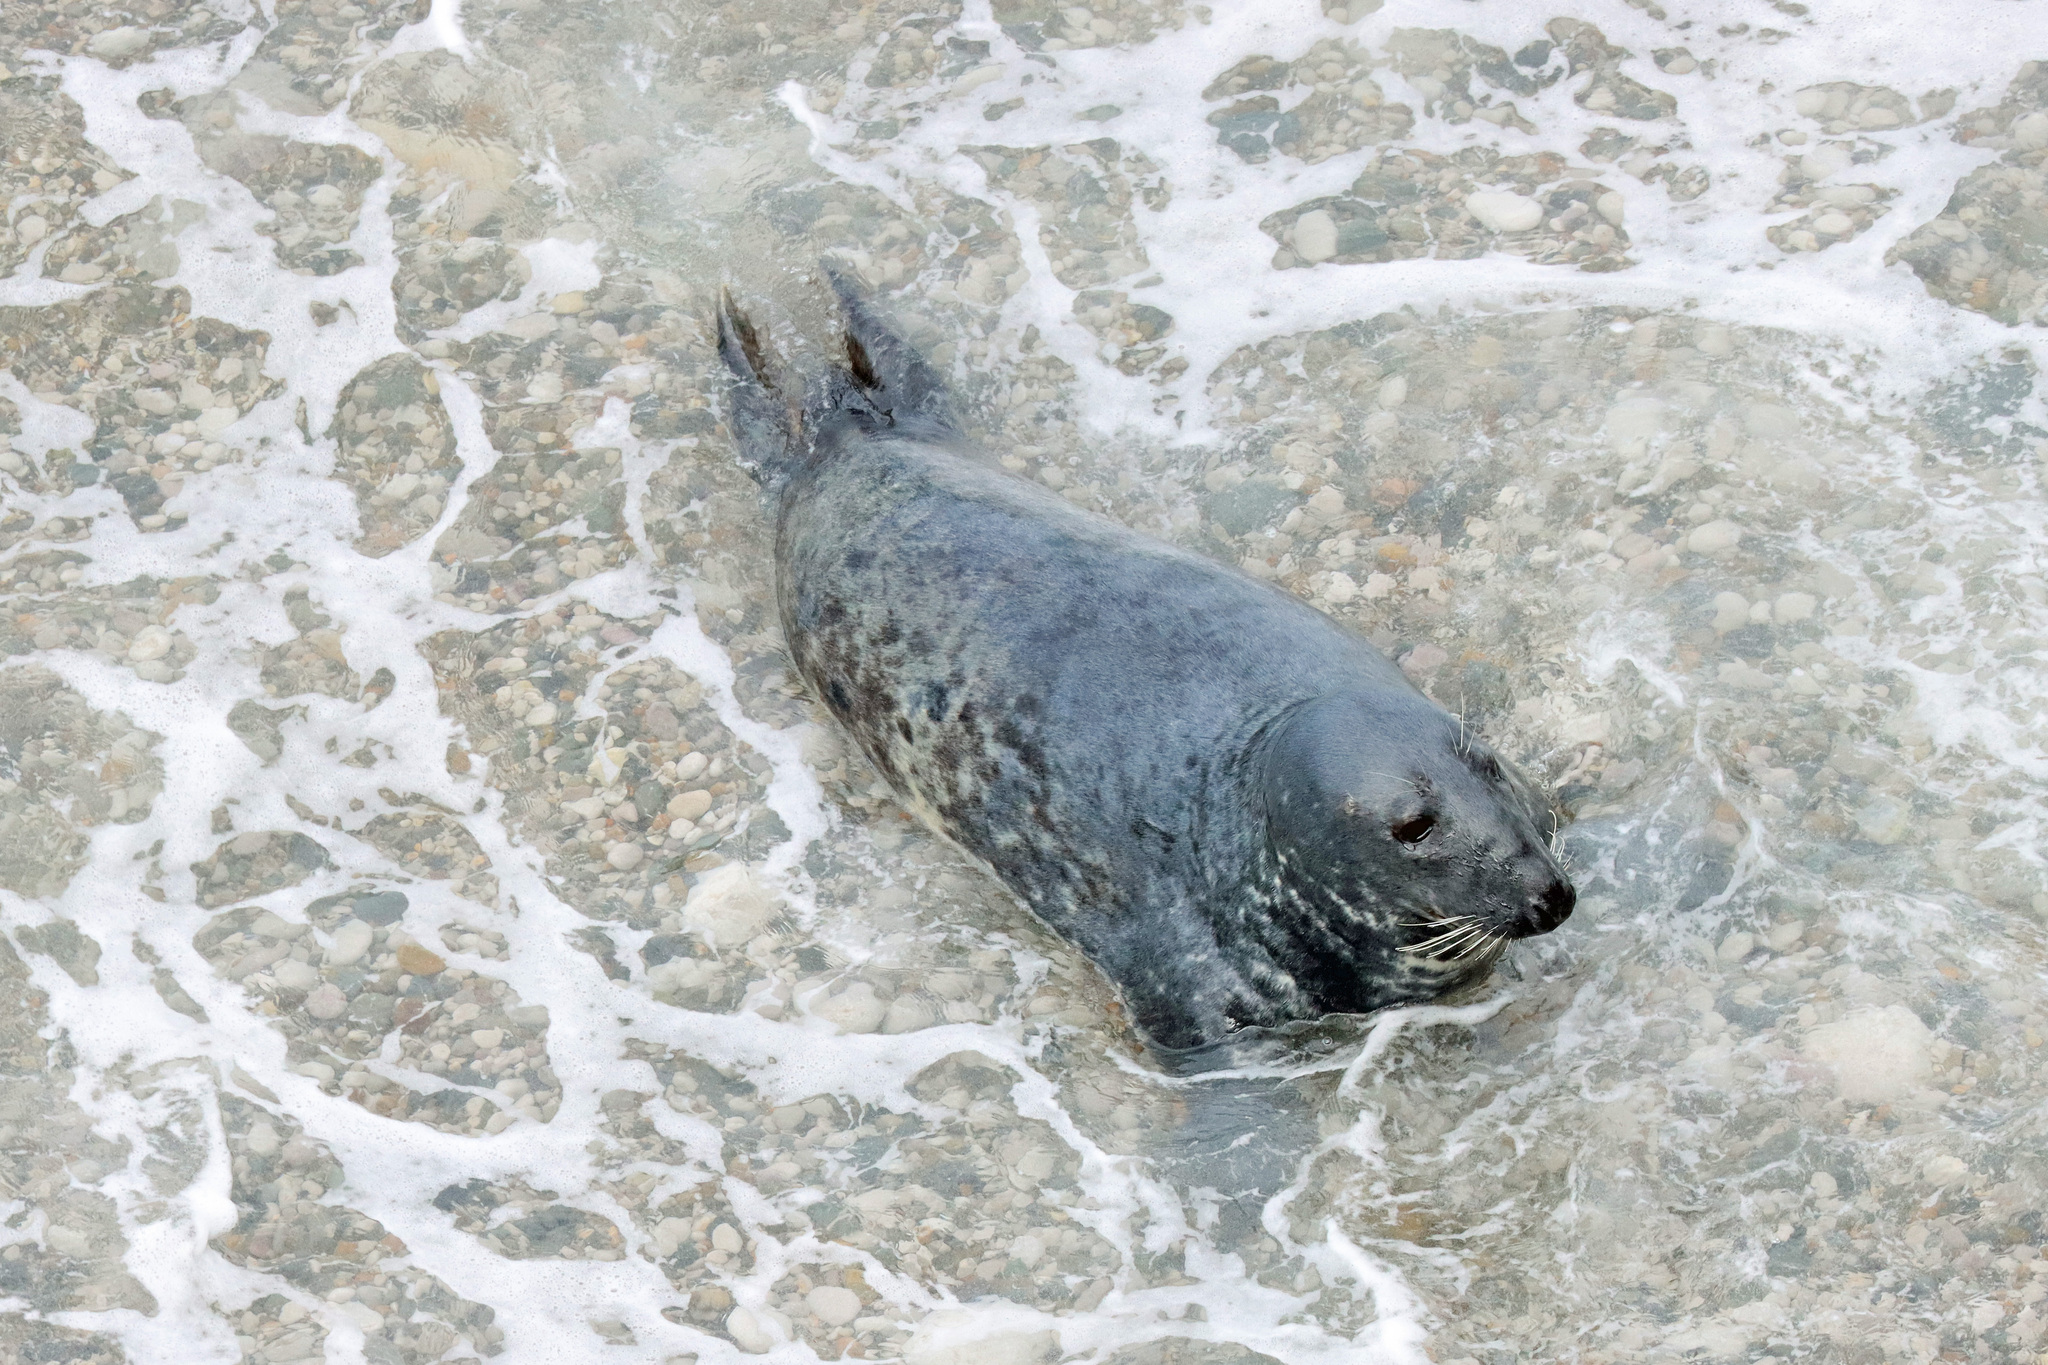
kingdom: Animalia
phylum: Chordata
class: Mammalia
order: Carnivora
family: Phocidae
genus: Halichoerus
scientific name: Halichoerus grypus
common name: Grey seal
